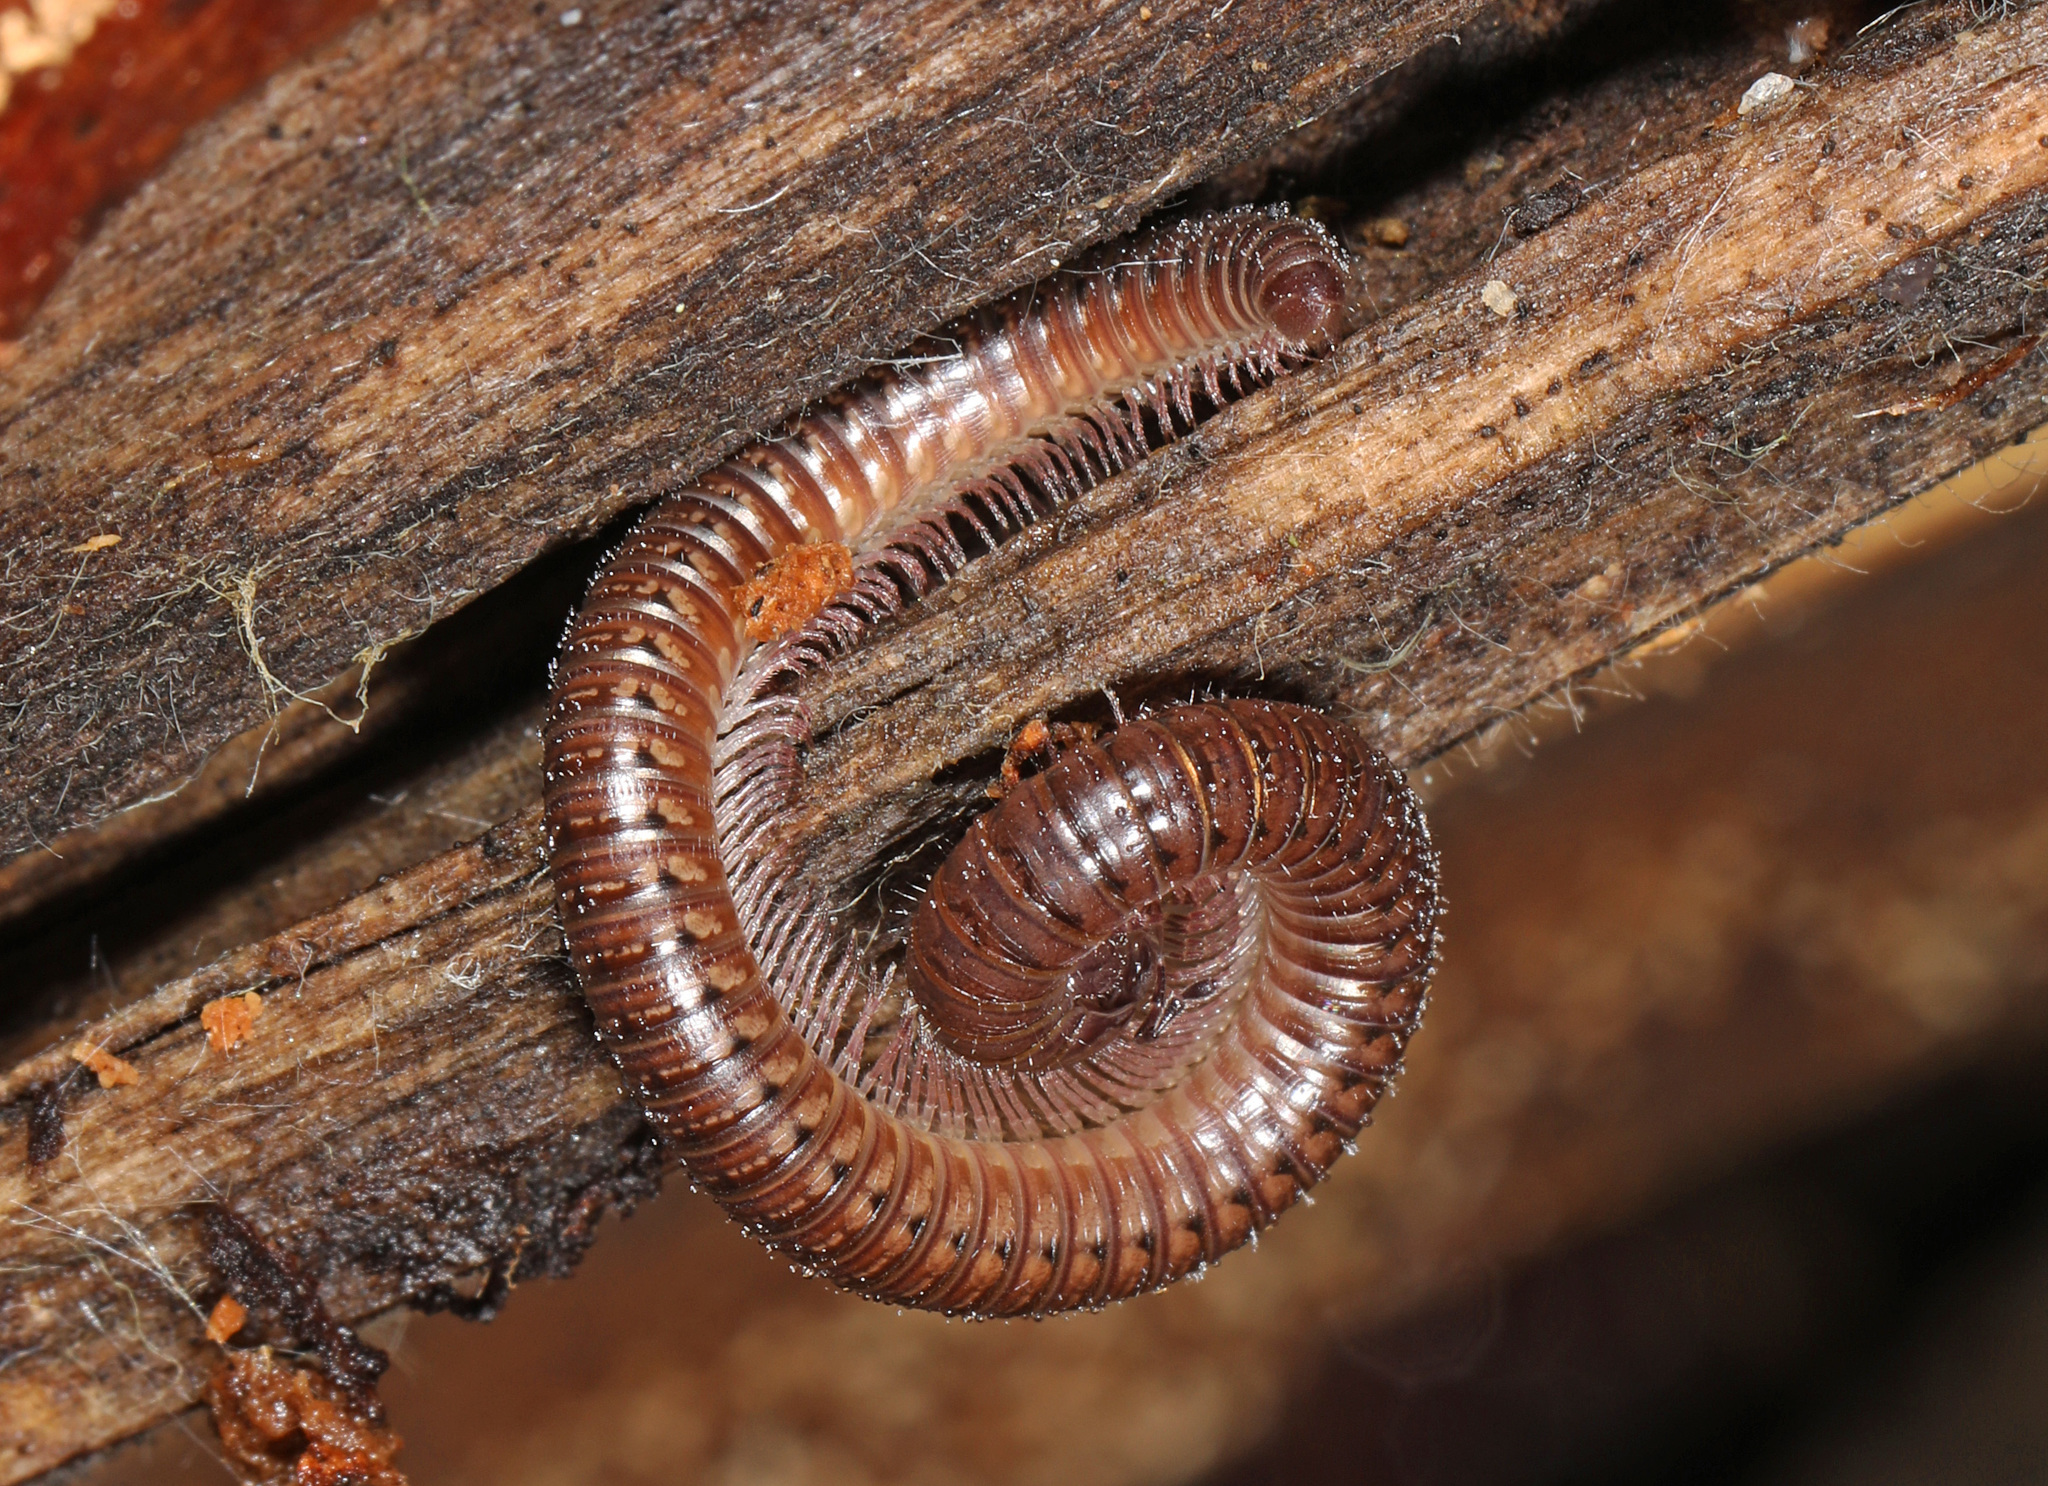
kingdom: Animalia
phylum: Arthropoda
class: Diplopoda
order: Julida
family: Parajulidae
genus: Ptyoiulus
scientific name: Ptyoiulus impressus
